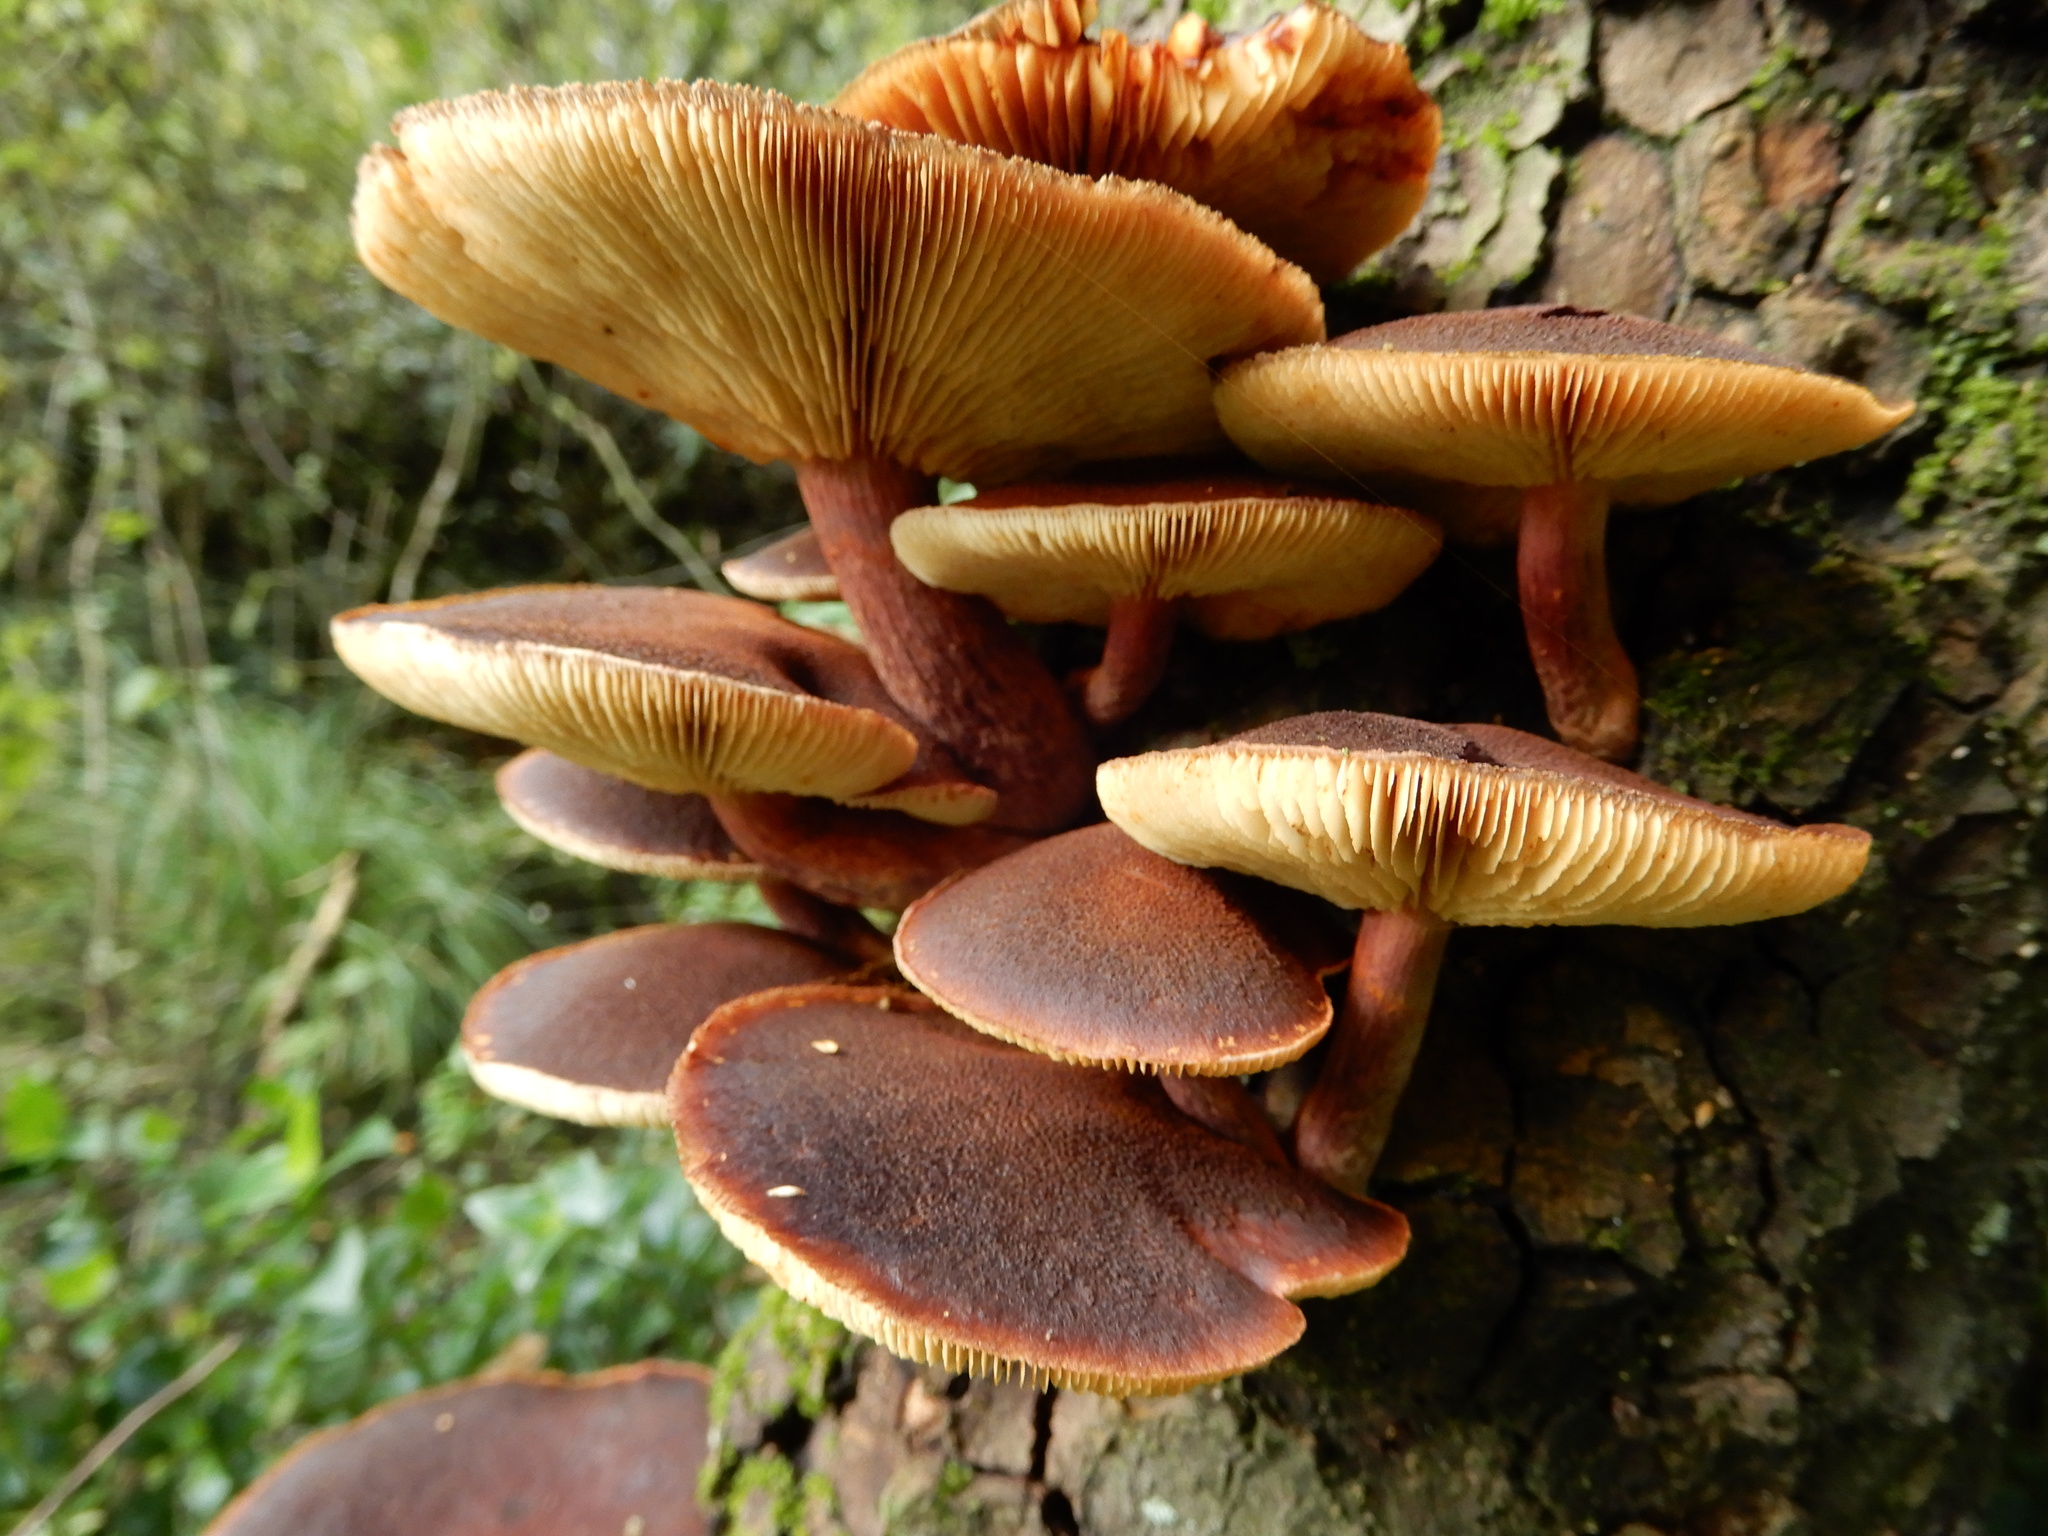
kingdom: Fungi
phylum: Basidiomycota
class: Agaricomycetes
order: Agaricales
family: Hymenogastraceae
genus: Gymnopilus
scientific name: Gymnopilus purpuratus
